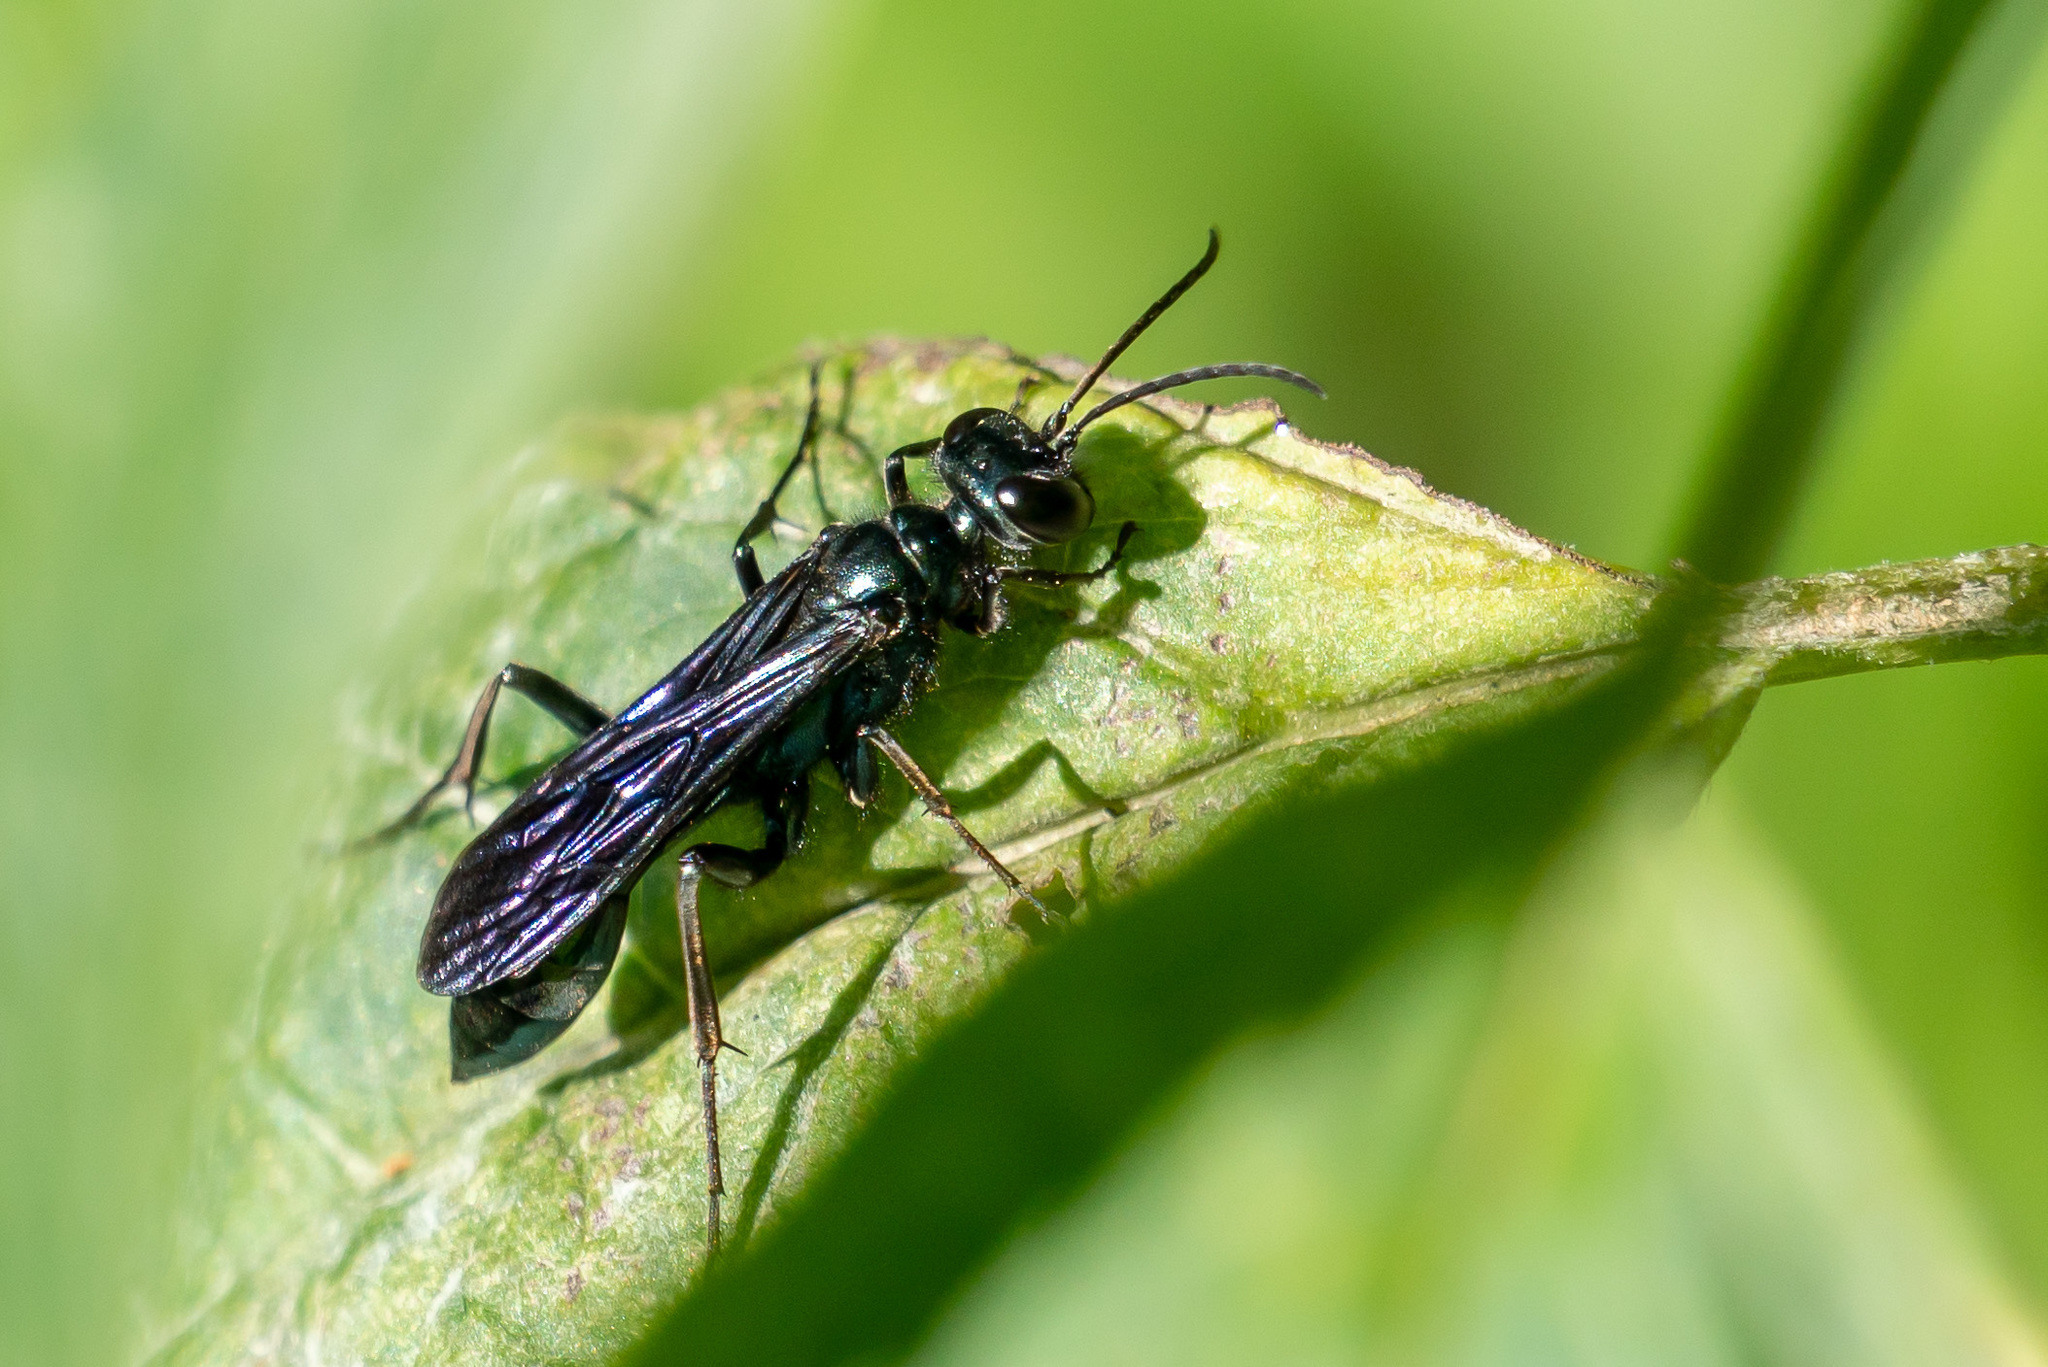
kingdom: Animalia
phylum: Arthropoda
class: Insecta
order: Hymenoptera
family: Sphecidae
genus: Chalybion
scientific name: Chalybion californicum
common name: Mud dauber
